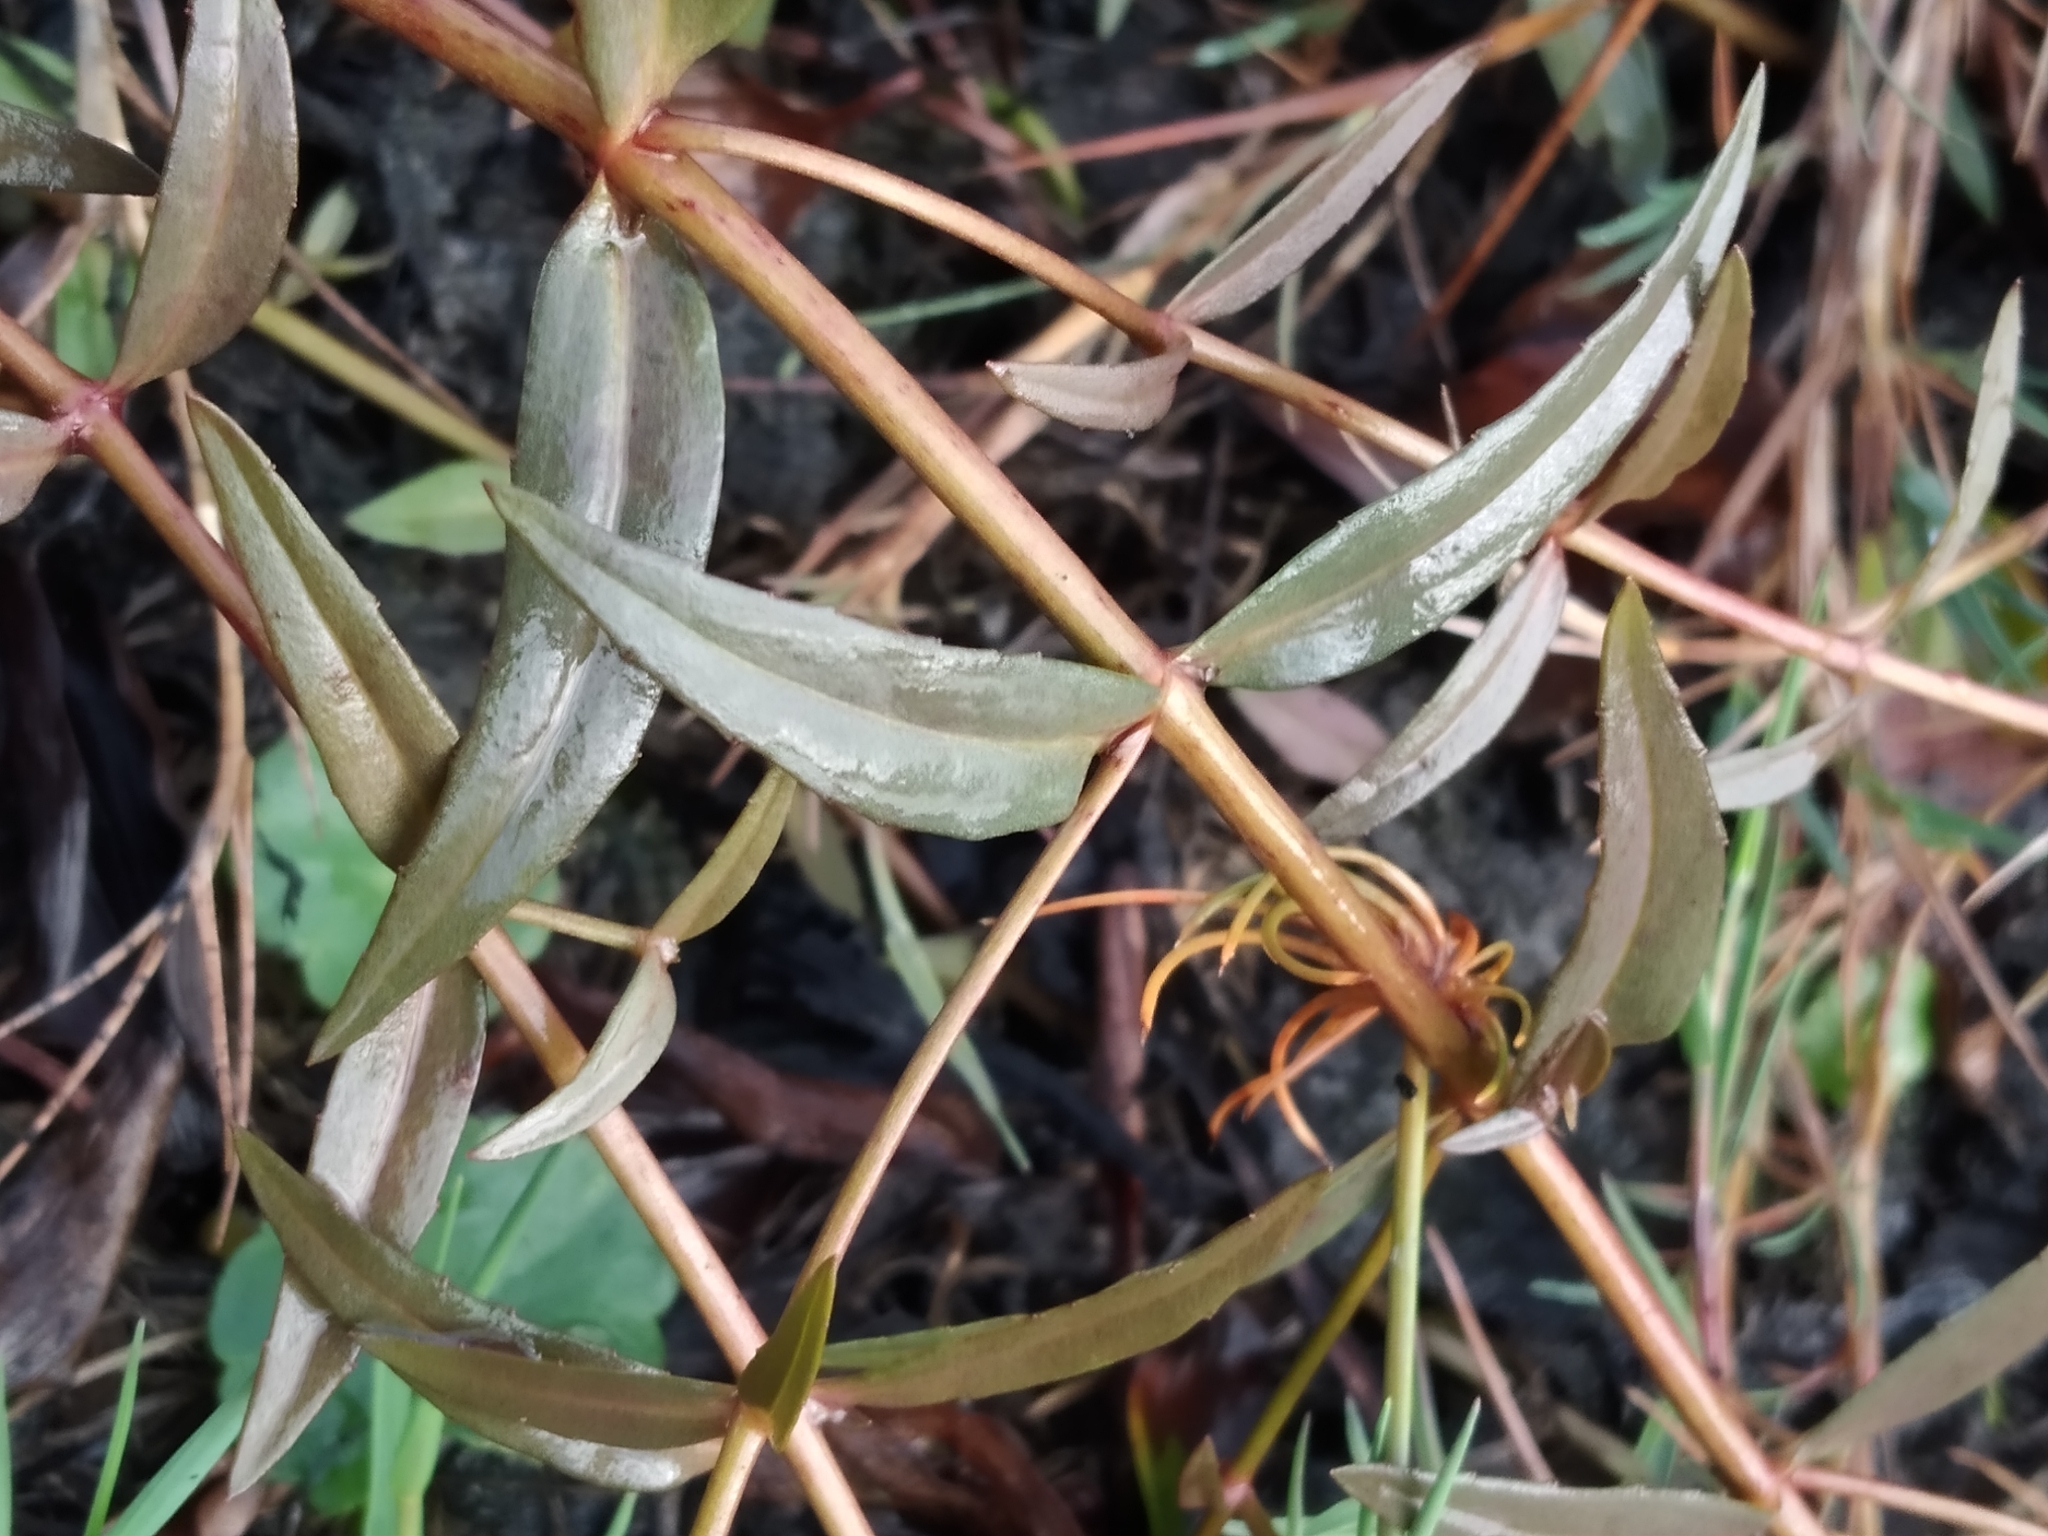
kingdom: Plantae
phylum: Tracheophyta
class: Magnoliopsida
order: Lamiales
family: Plantaginaceae
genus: Veronica
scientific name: Veronica scutellata
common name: Marsh speedwell
